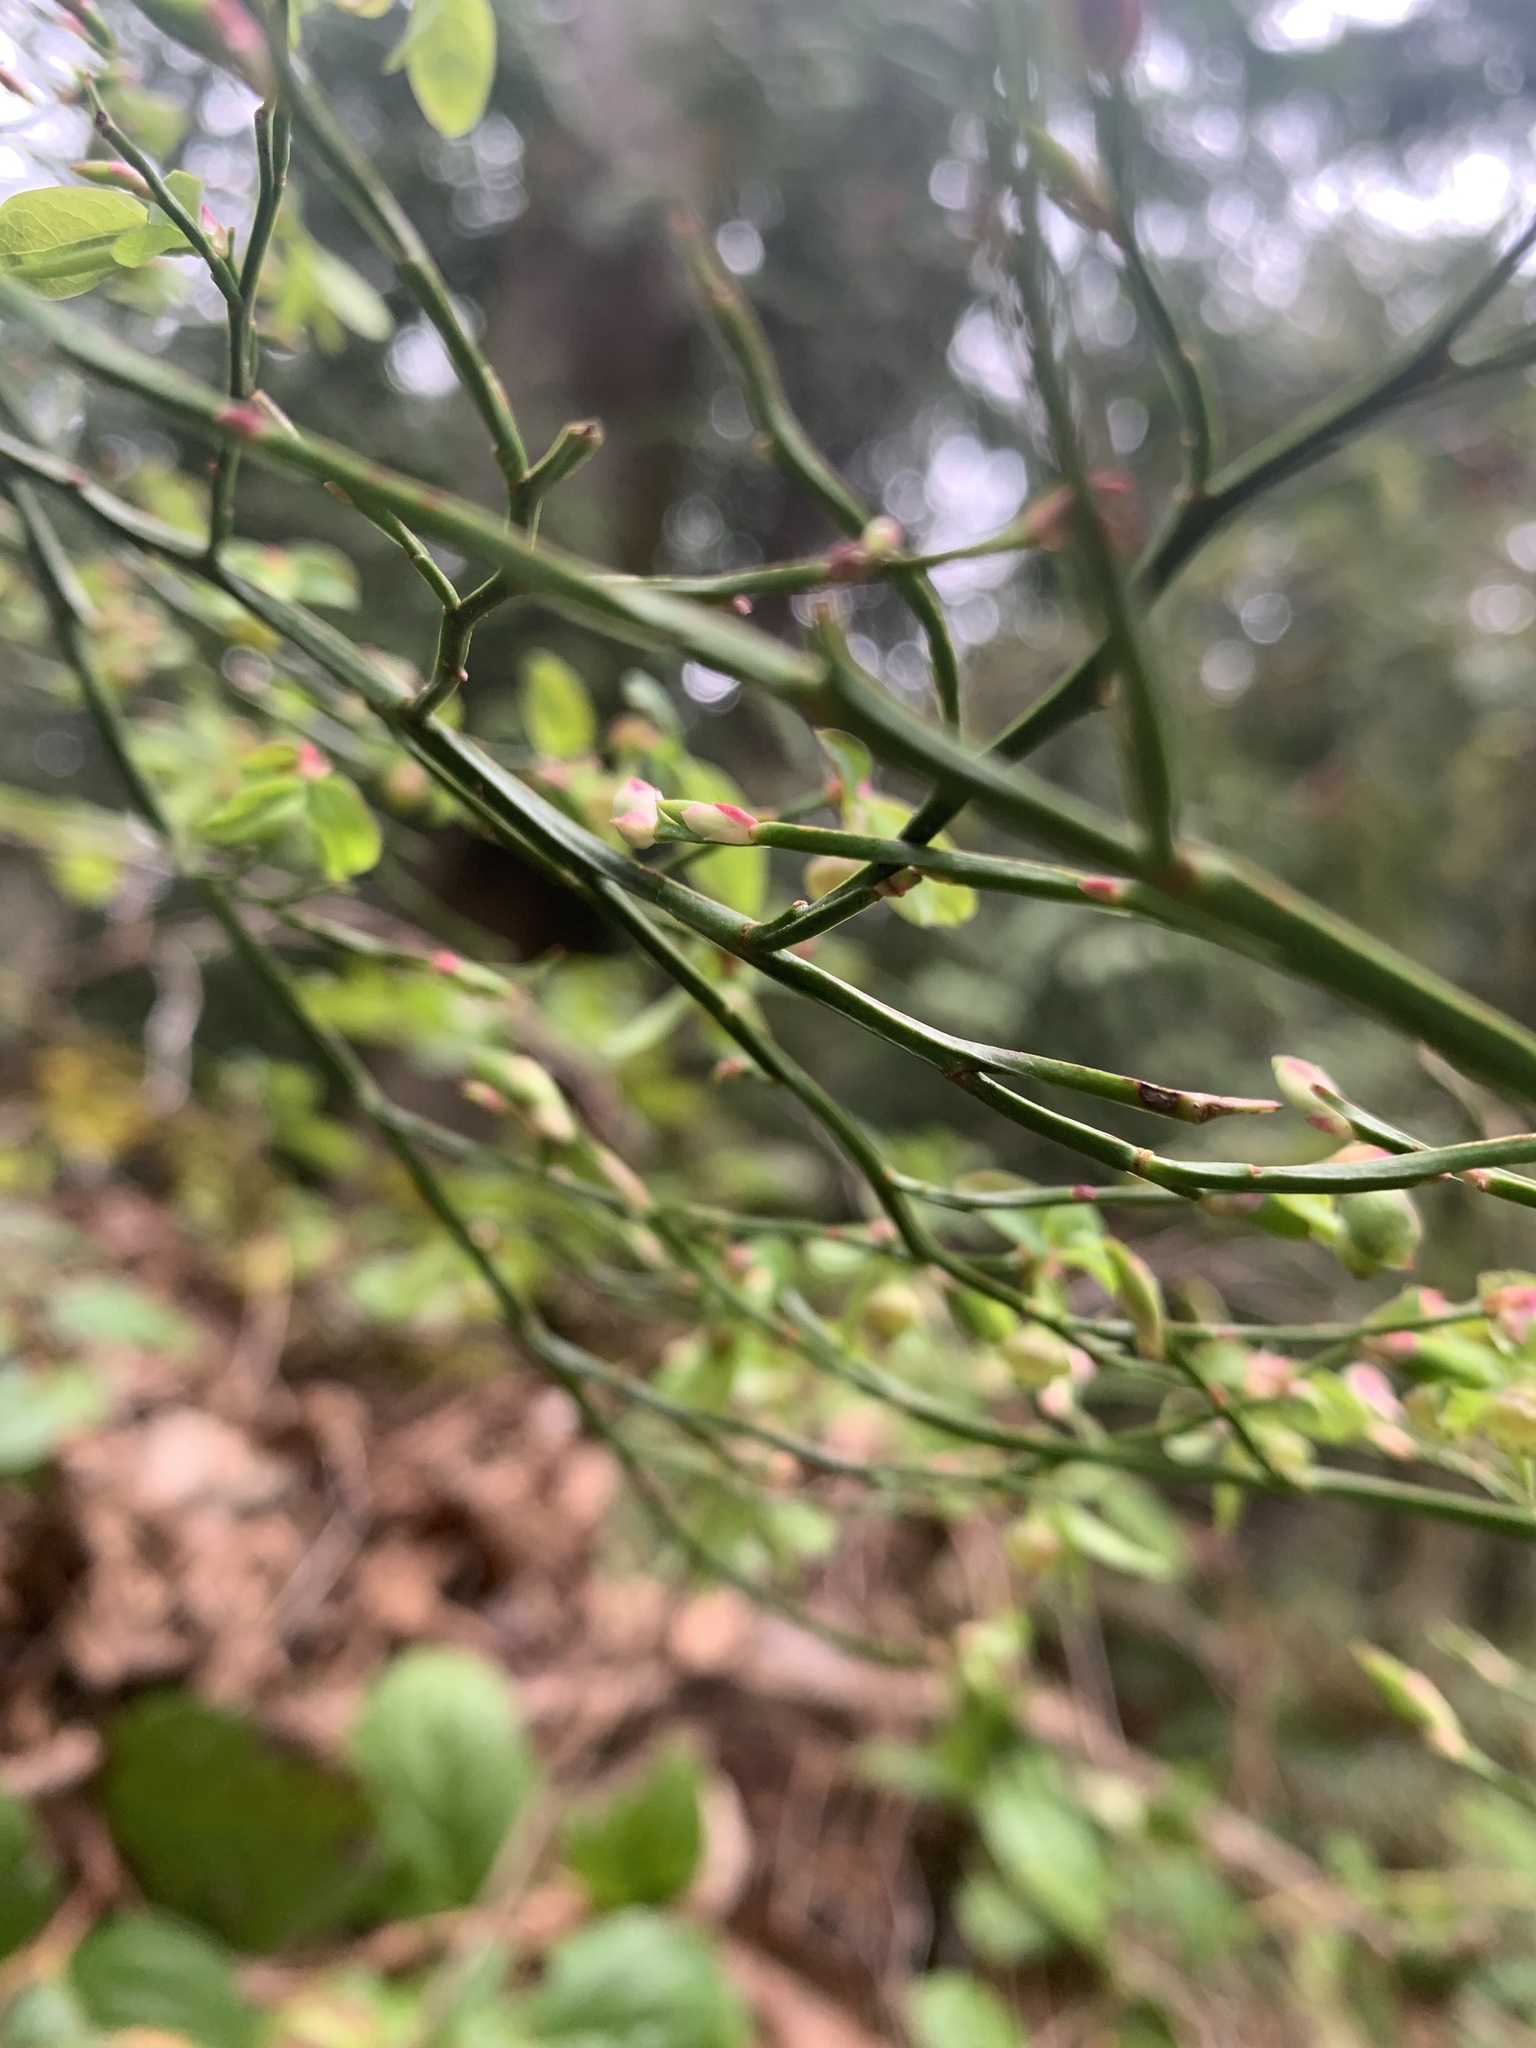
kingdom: Plantae
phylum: Tracheophyta
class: Magnoliopsida
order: Ericales
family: Ericaceae
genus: Vaccinium
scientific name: Vaccinium parvifolium
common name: Red-huckleberry
